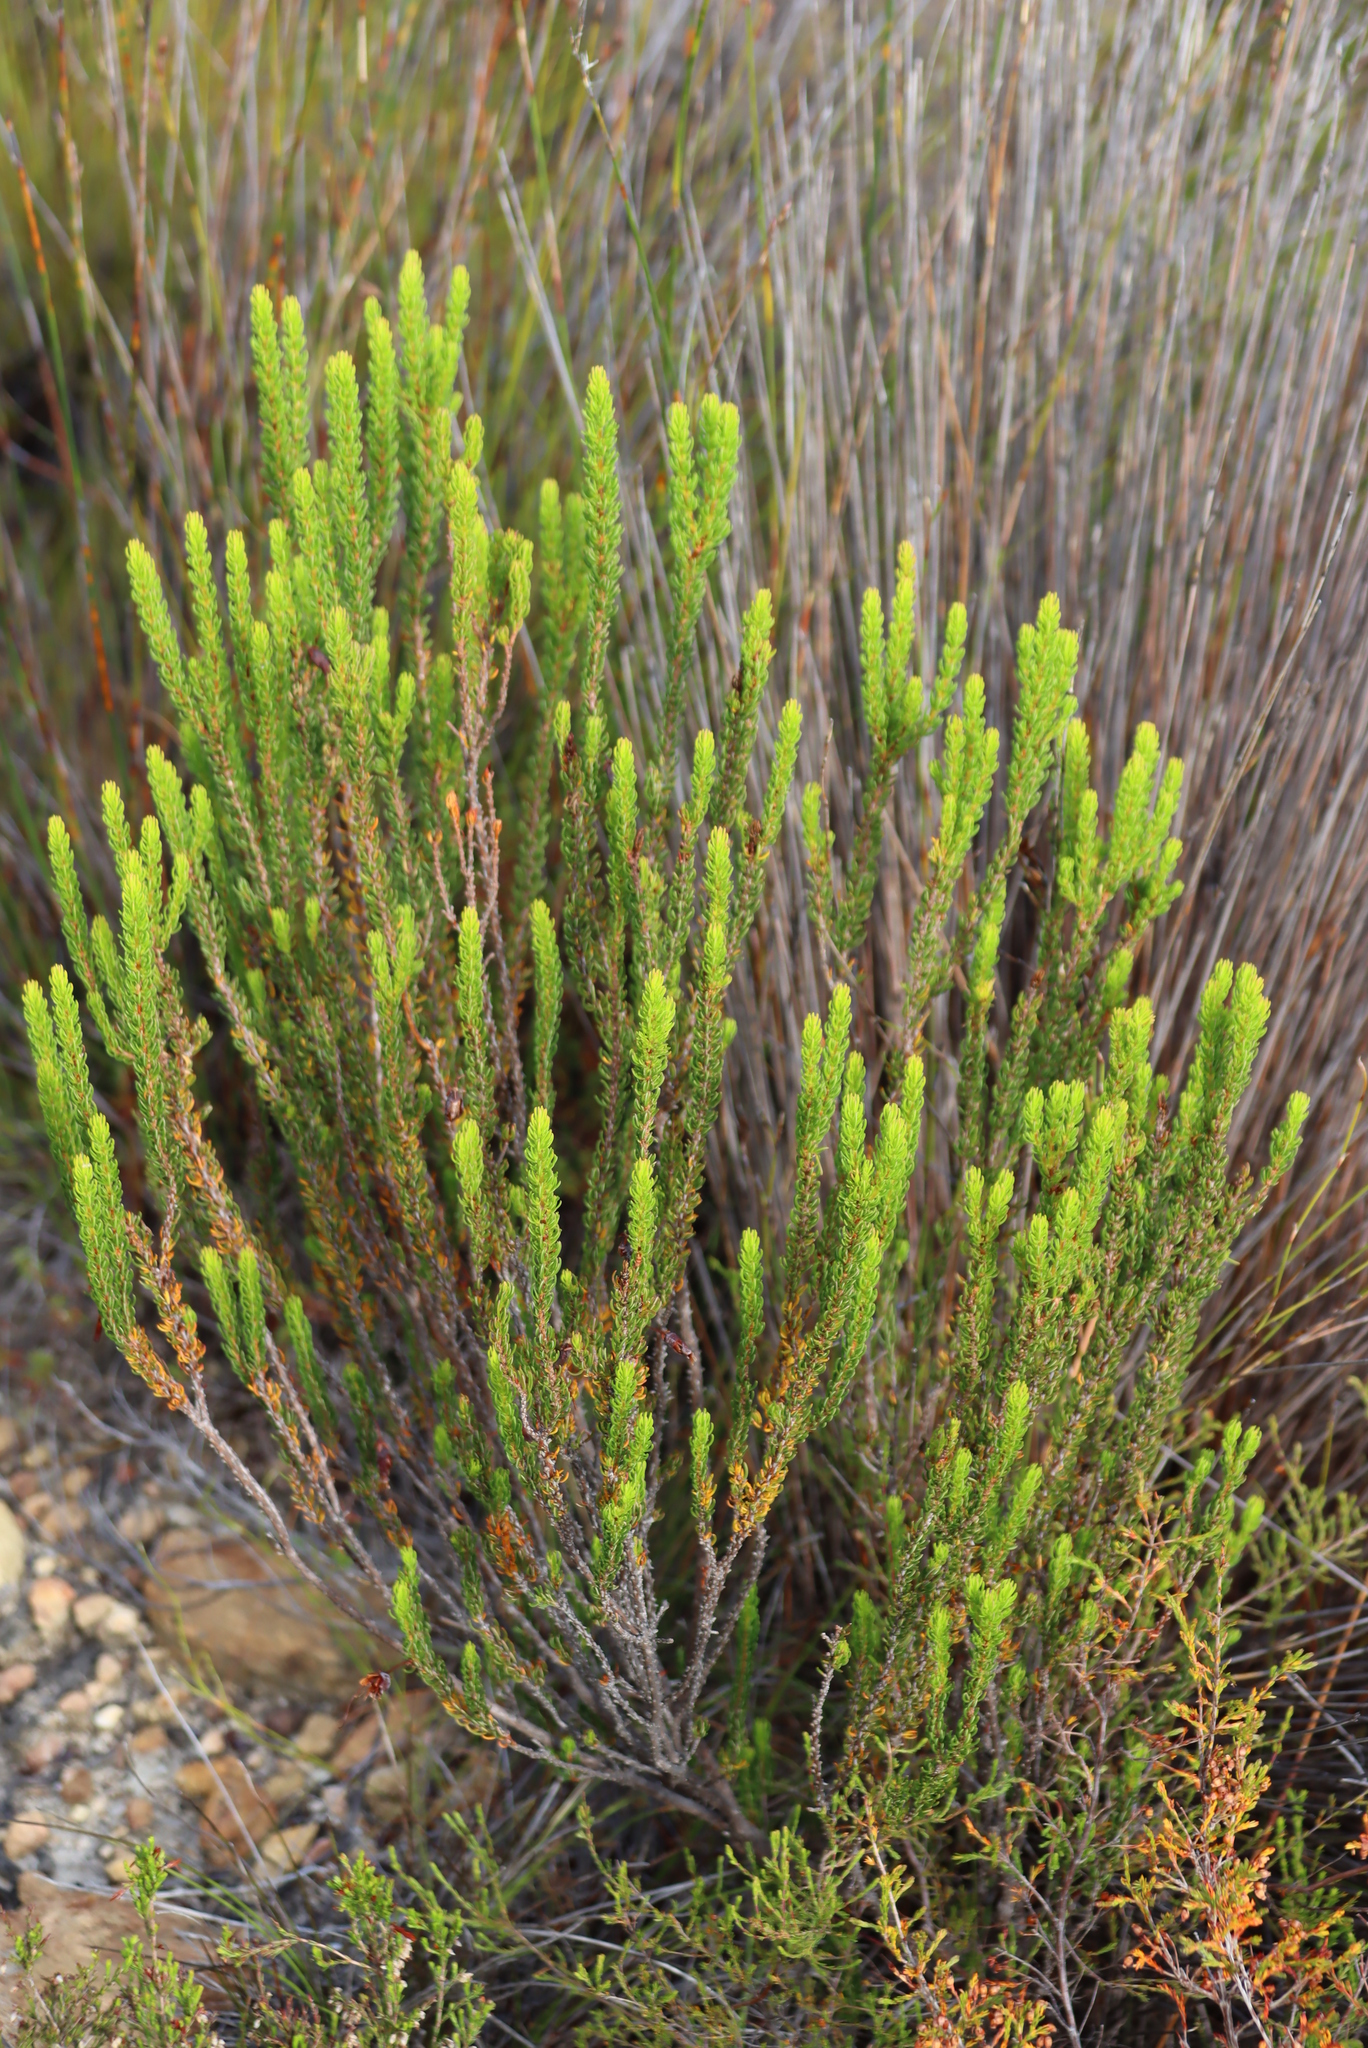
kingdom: Plantae
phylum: Tracheophyta
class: Magnoliopsida
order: Ericales
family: Ericaceae
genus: Erica
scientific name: Erica plukenetii
